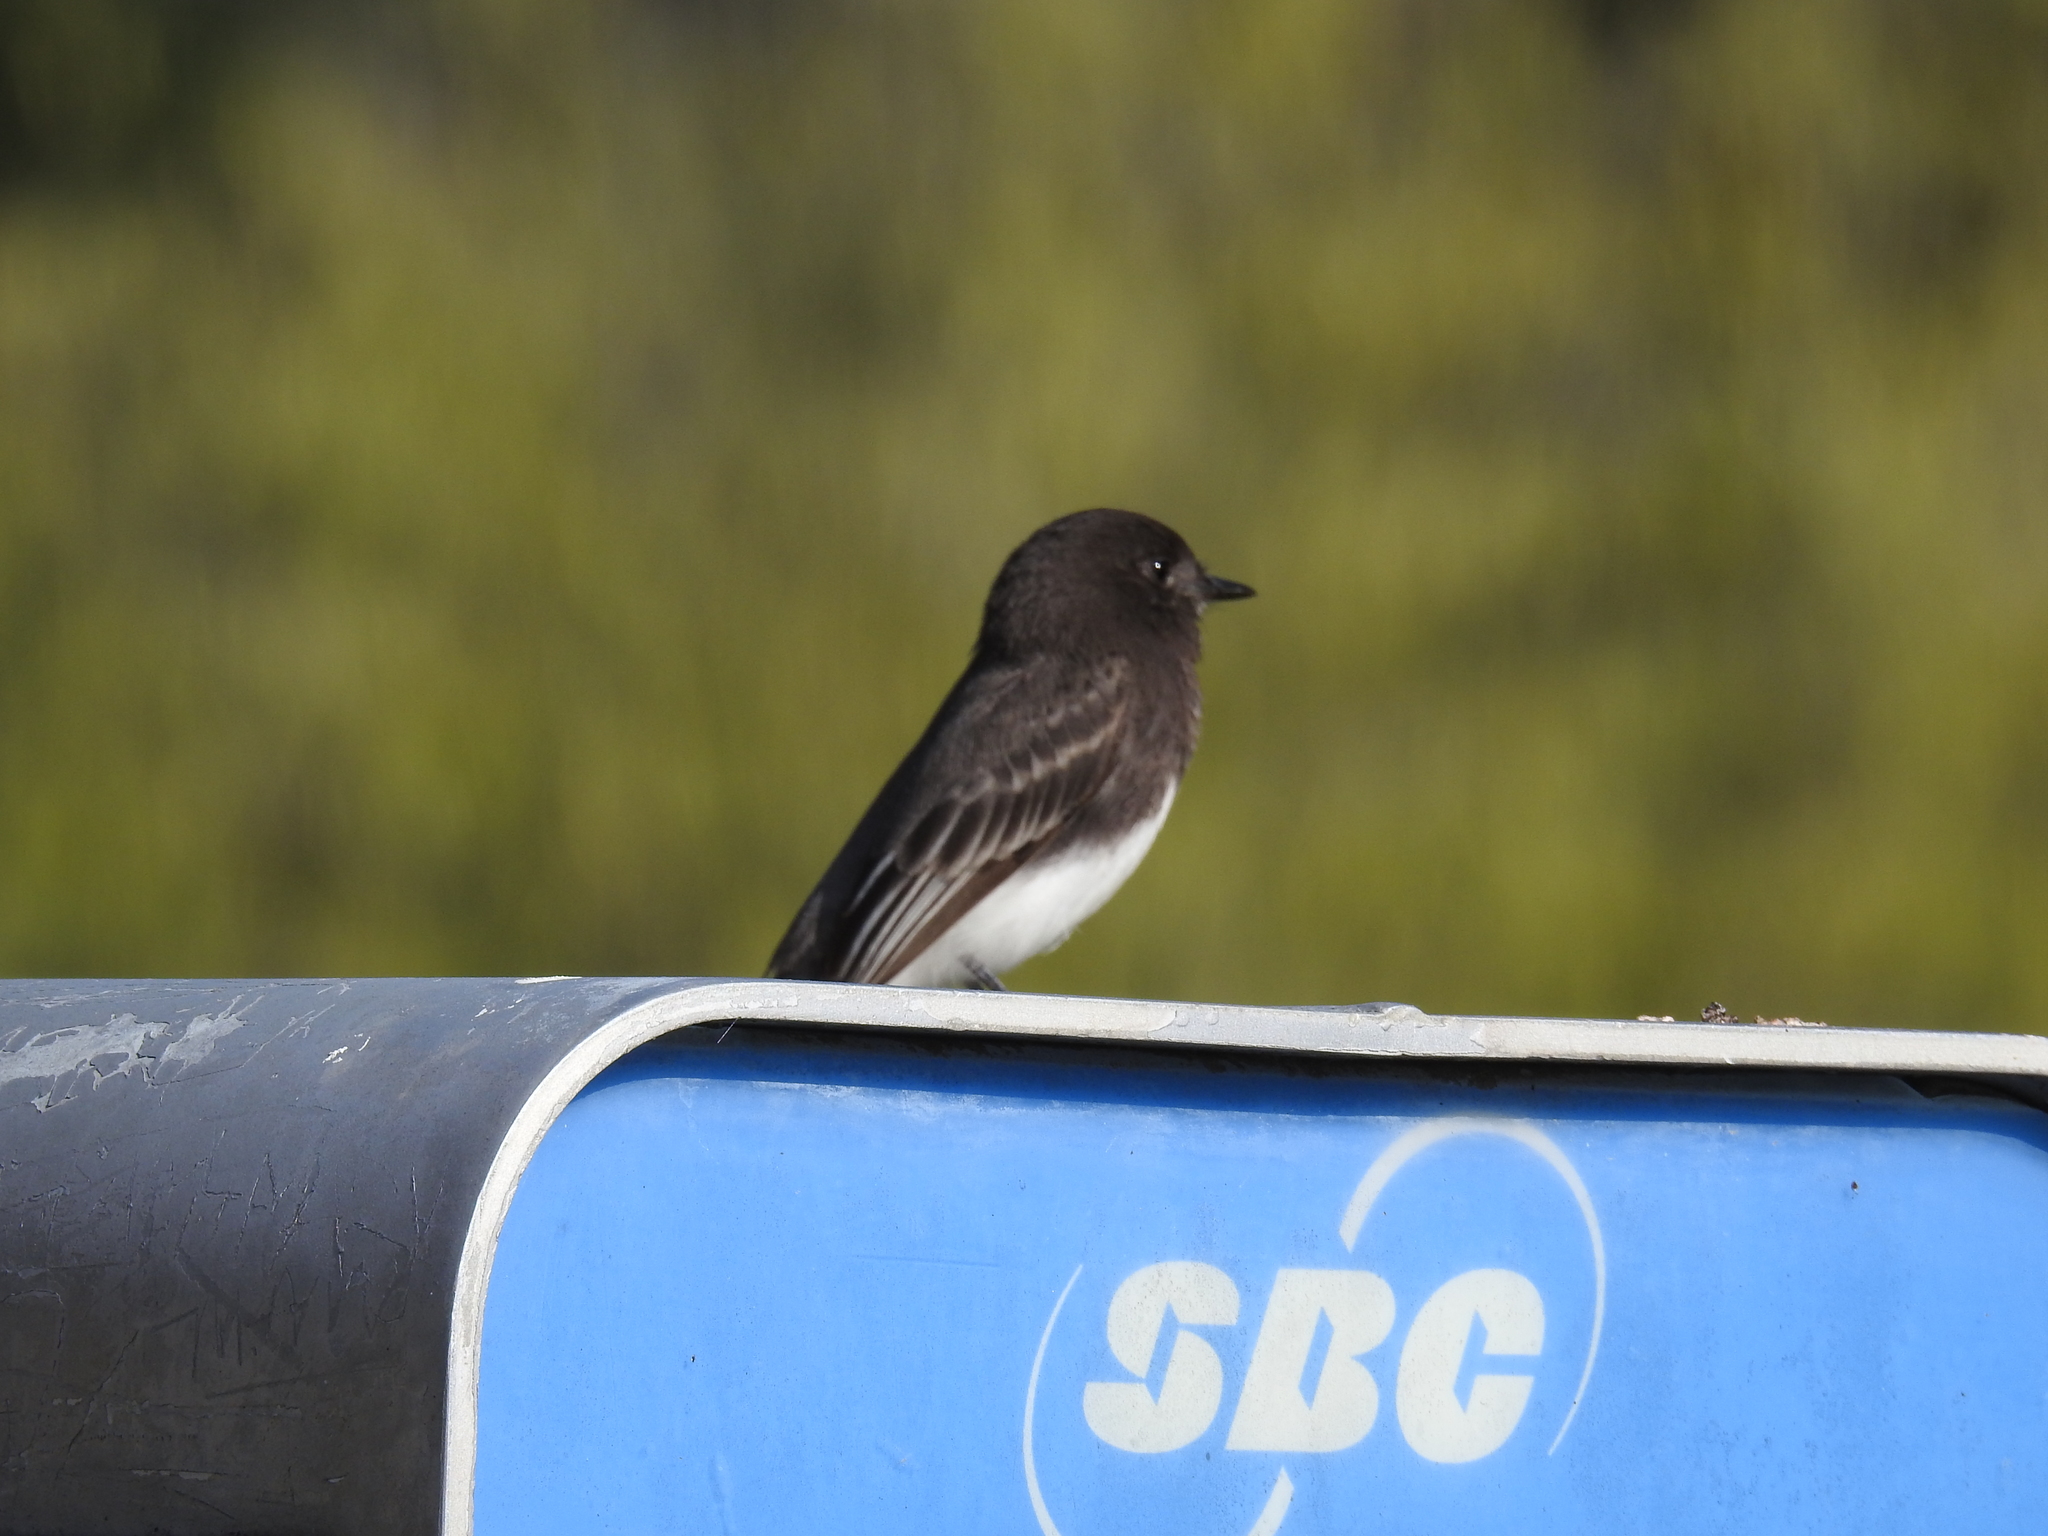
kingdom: Animalia
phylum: Chordata
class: Aves
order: Passeriformes
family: Tyrannidae
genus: Sayornis
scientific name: Sayornis nigricans
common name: Black phoebe
